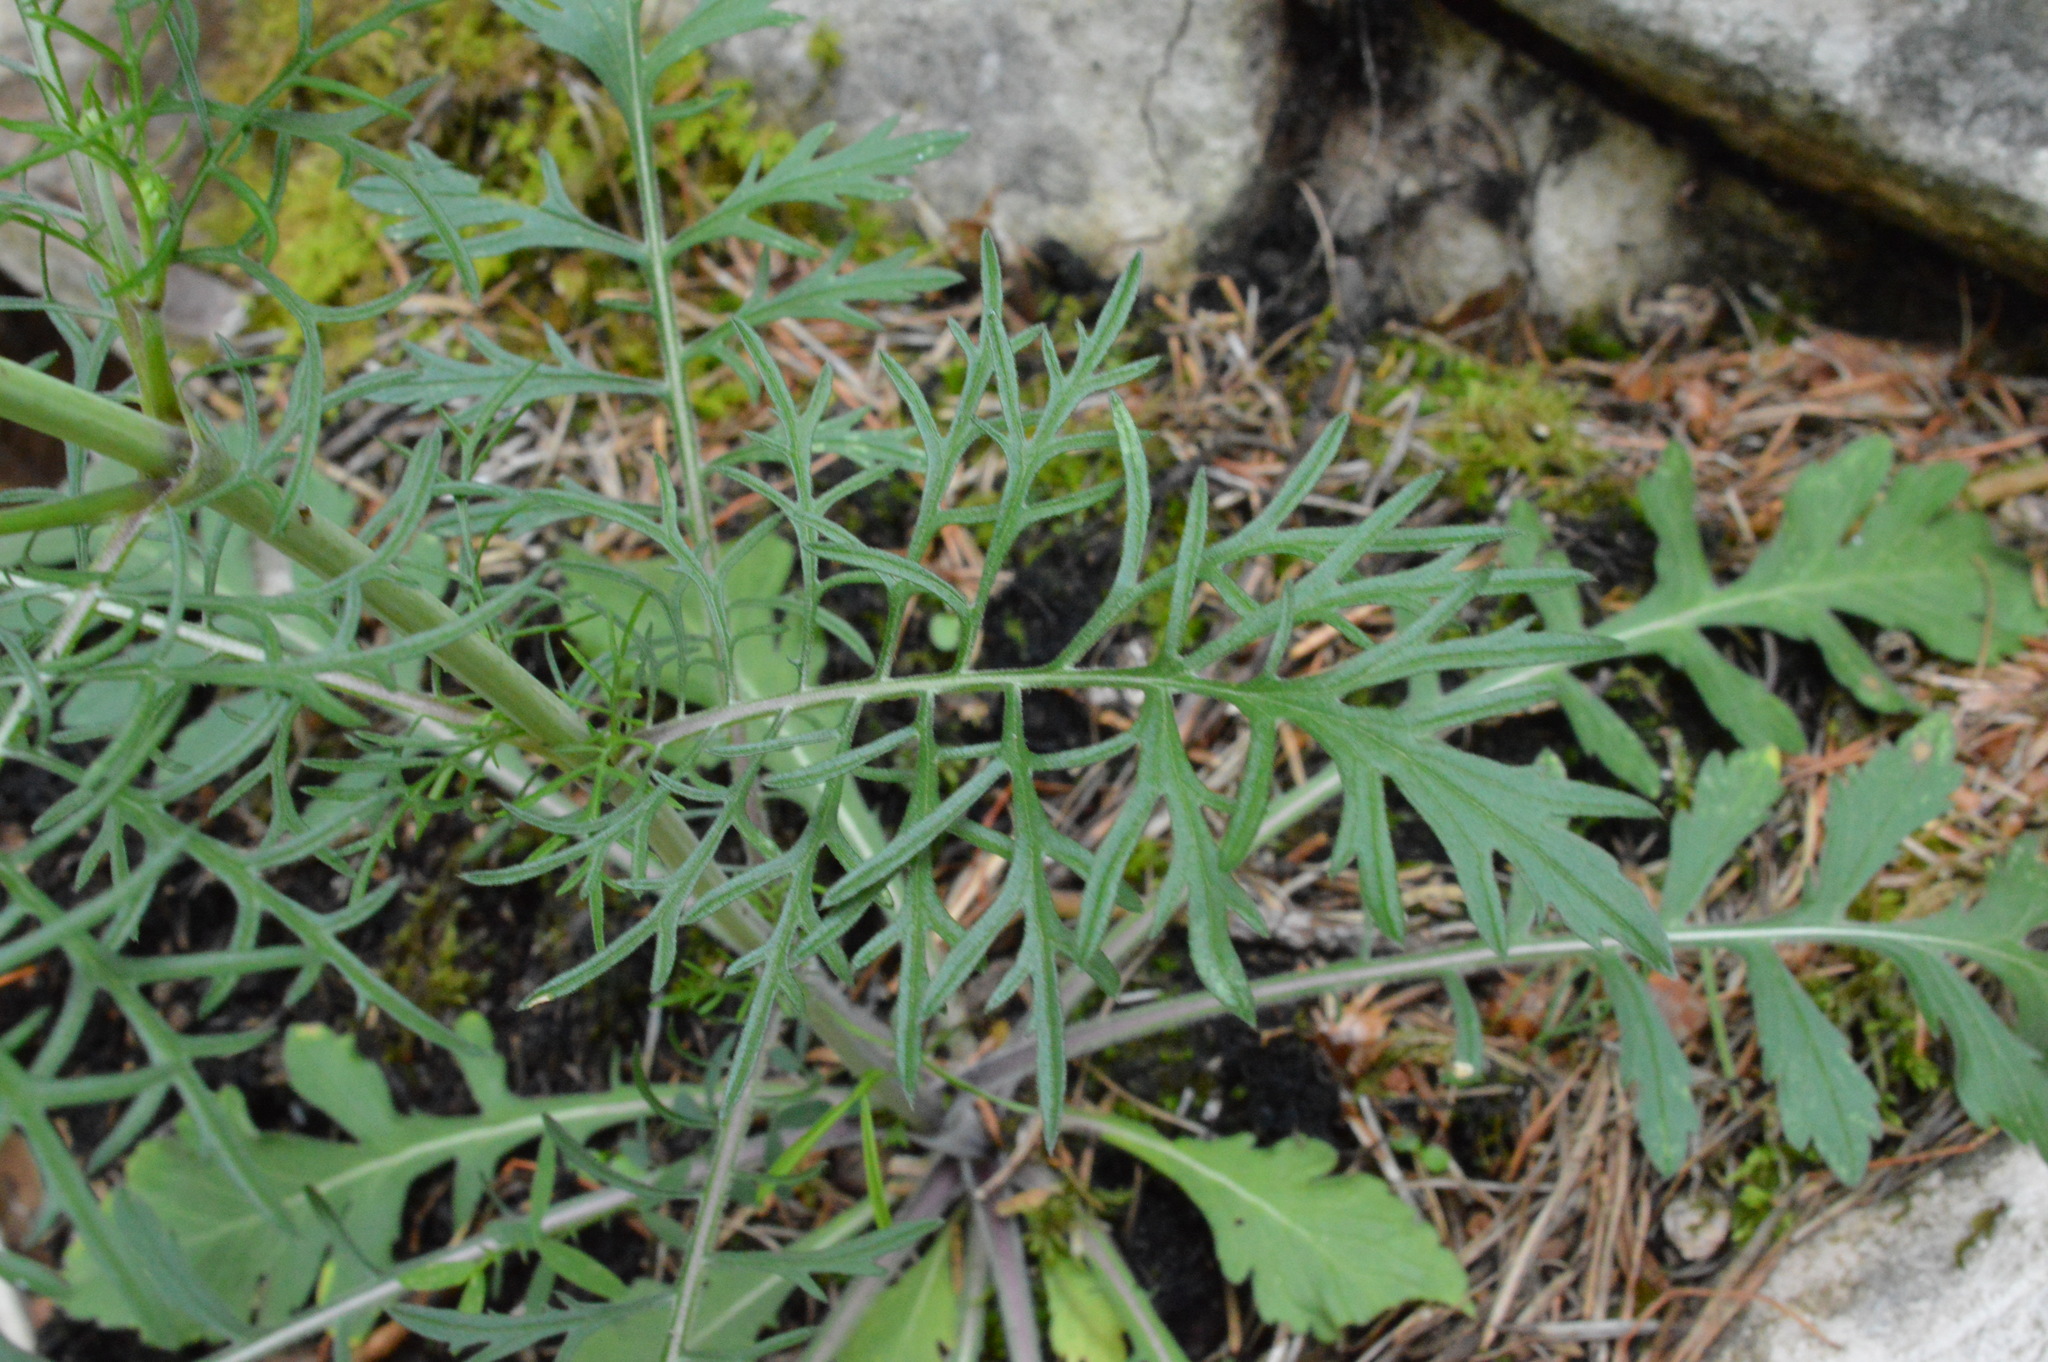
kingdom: Plantae
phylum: Tracheophyta
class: Magnoliopsida
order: Dipsacales
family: Caprifoliaceae
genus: Scabiosa
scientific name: Scabiosa triandra
